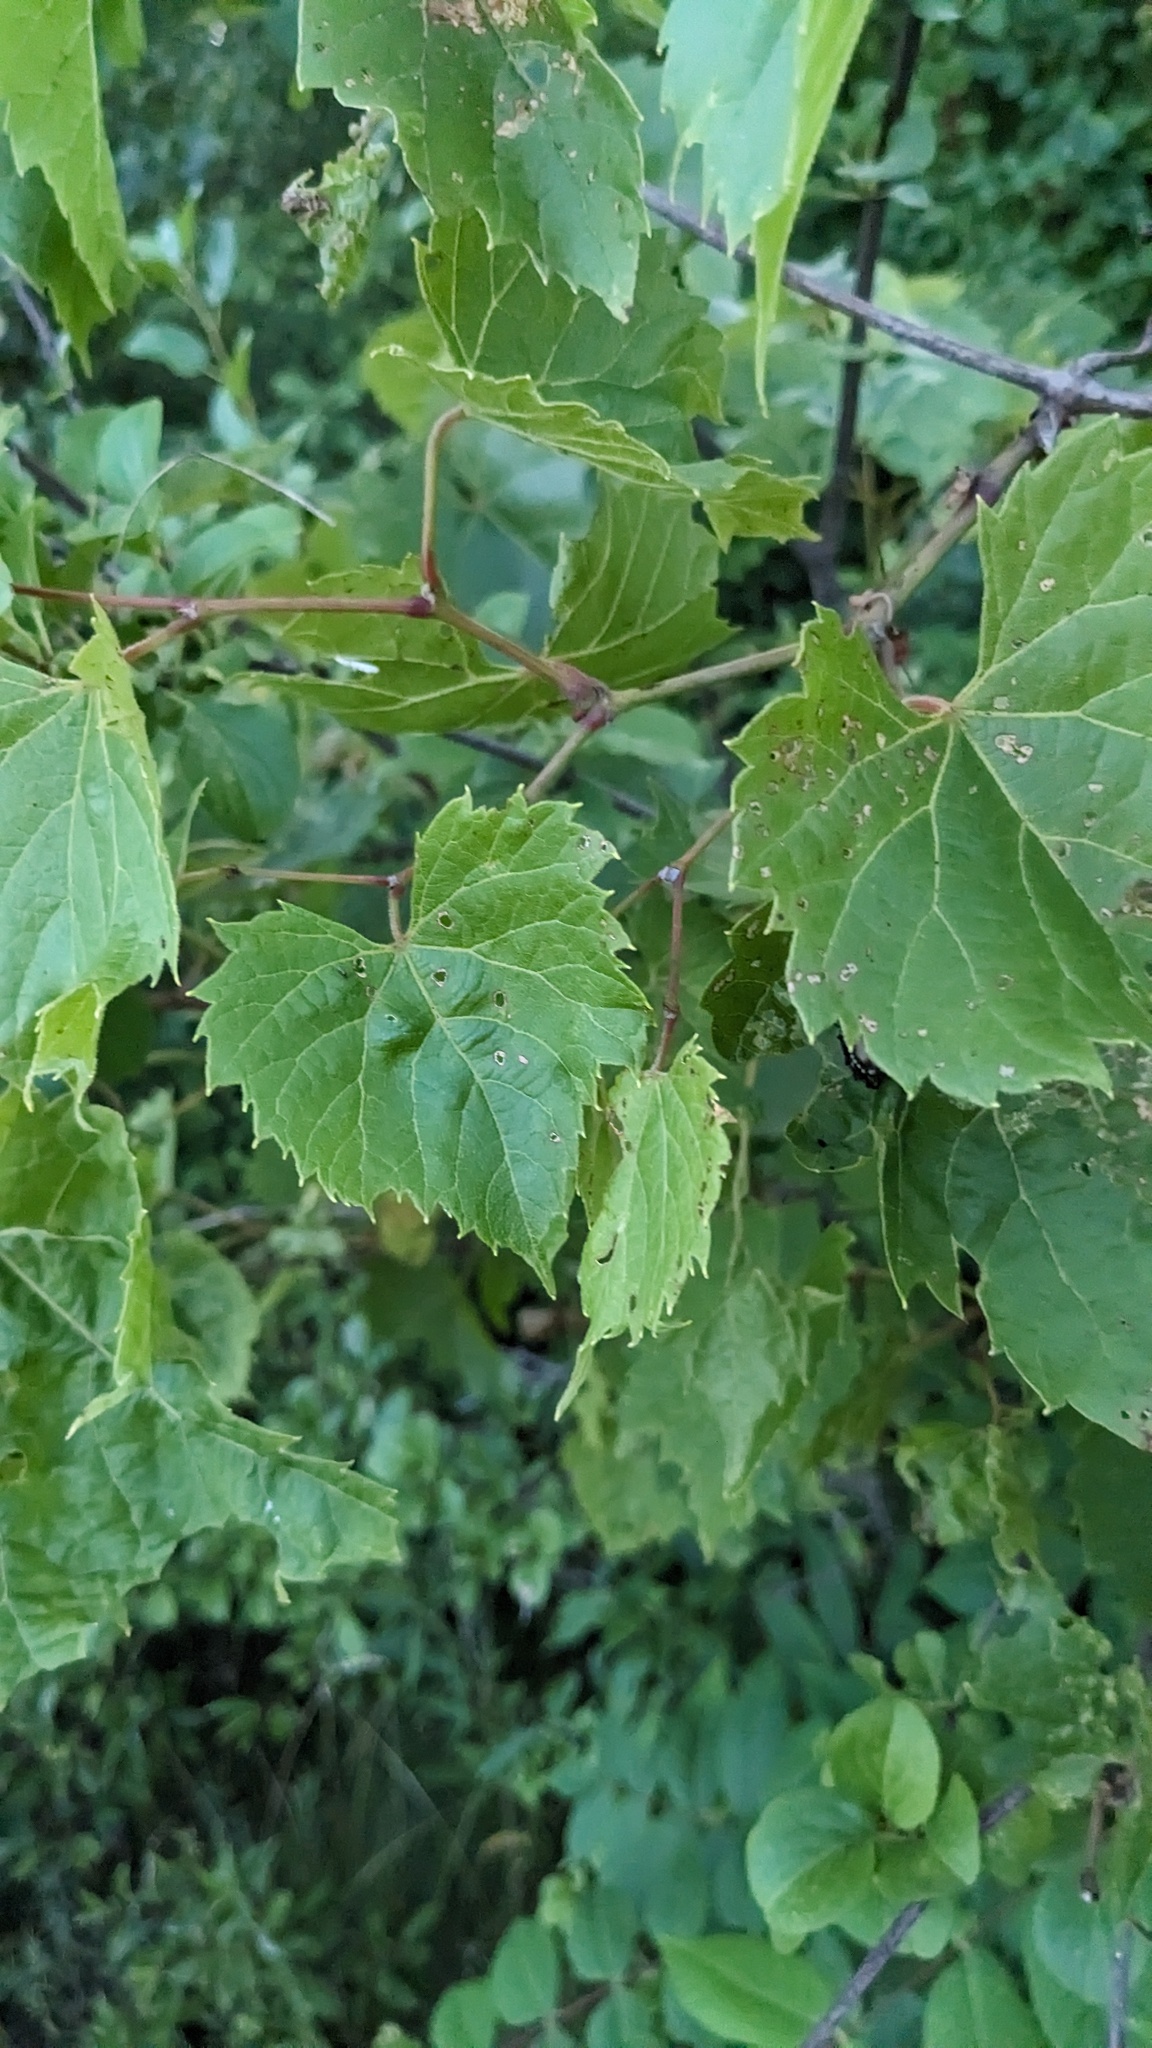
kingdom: Plantae
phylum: Tracheophyta
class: Magnoliopsida
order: Vitales
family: Vitaceae
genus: Vitis
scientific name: Vitis riparia
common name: Frost grape
